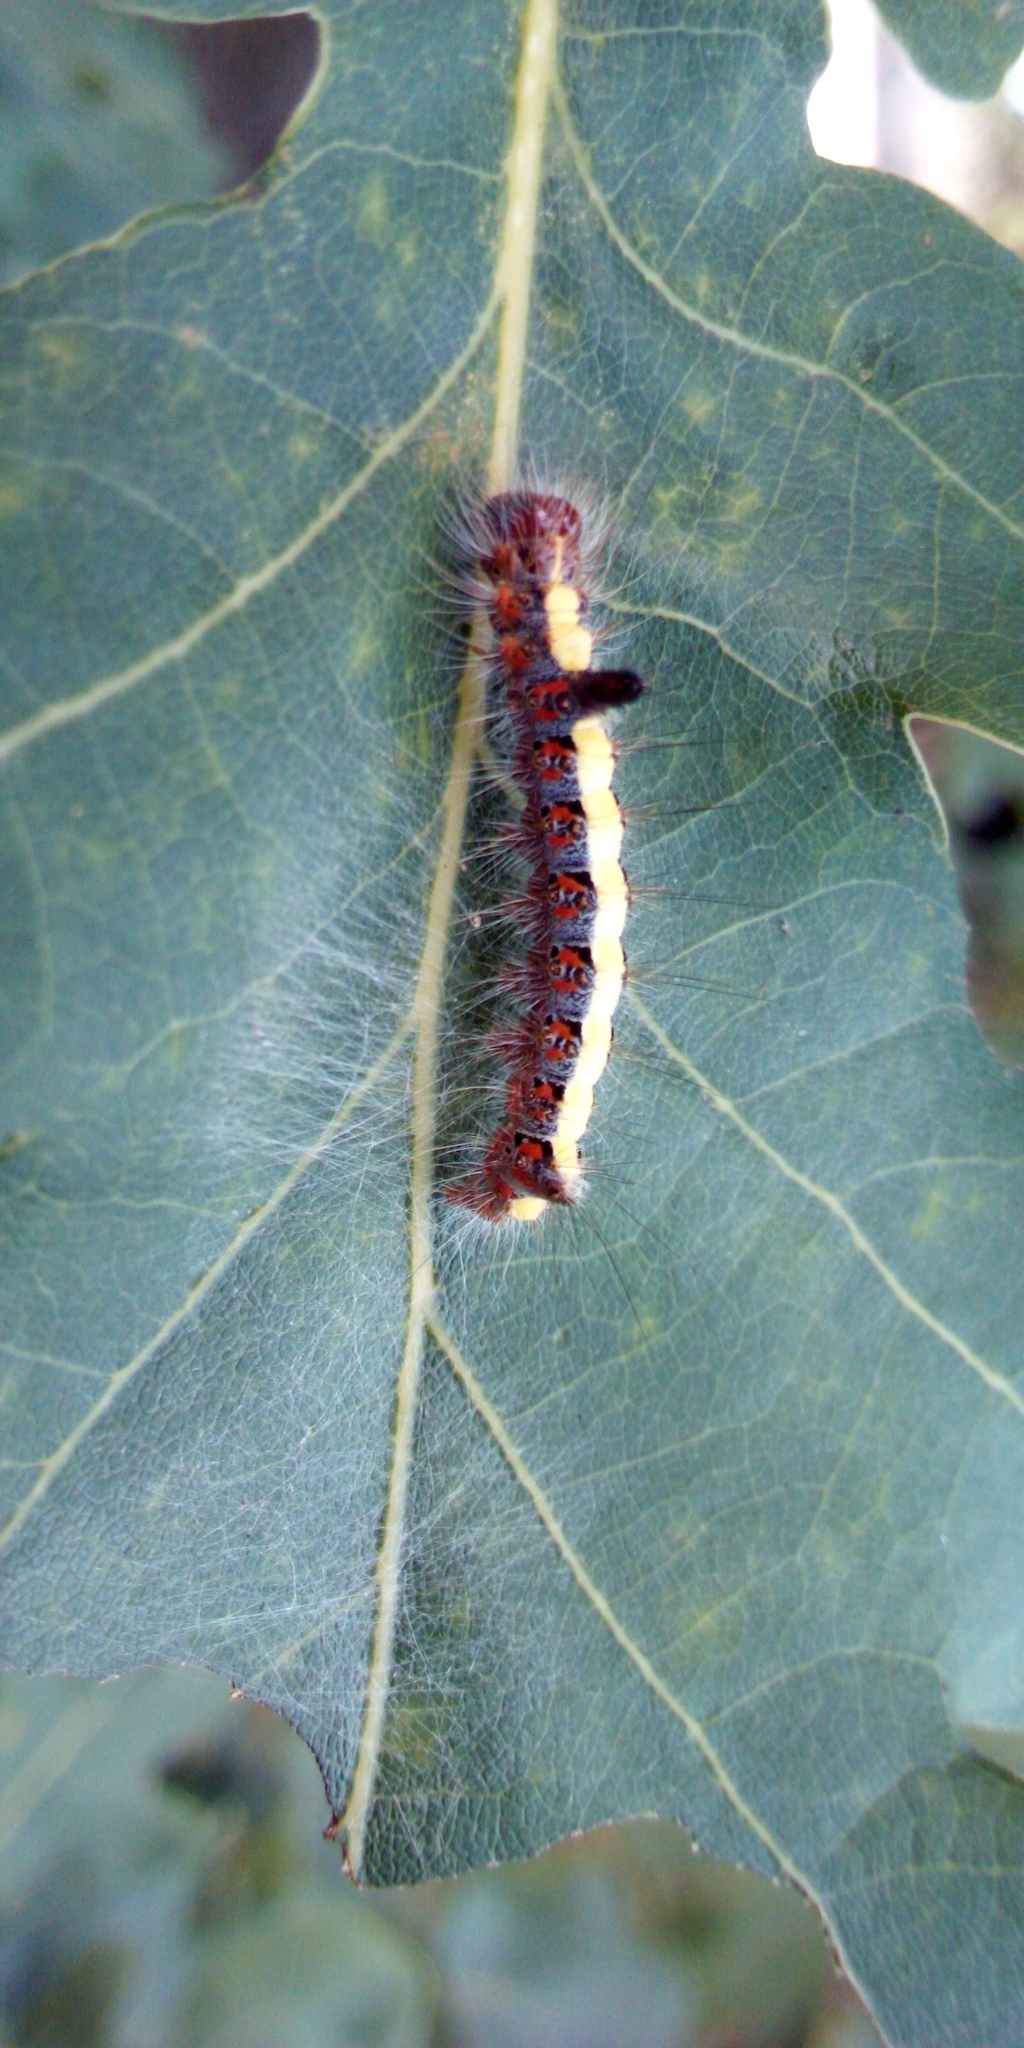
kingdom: Animalia
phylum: Arthropoda
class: Insecta
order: Lepidoptera
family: Noctuidae
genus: Acronicta
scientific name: Acronicta psi
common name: Grey dagger
